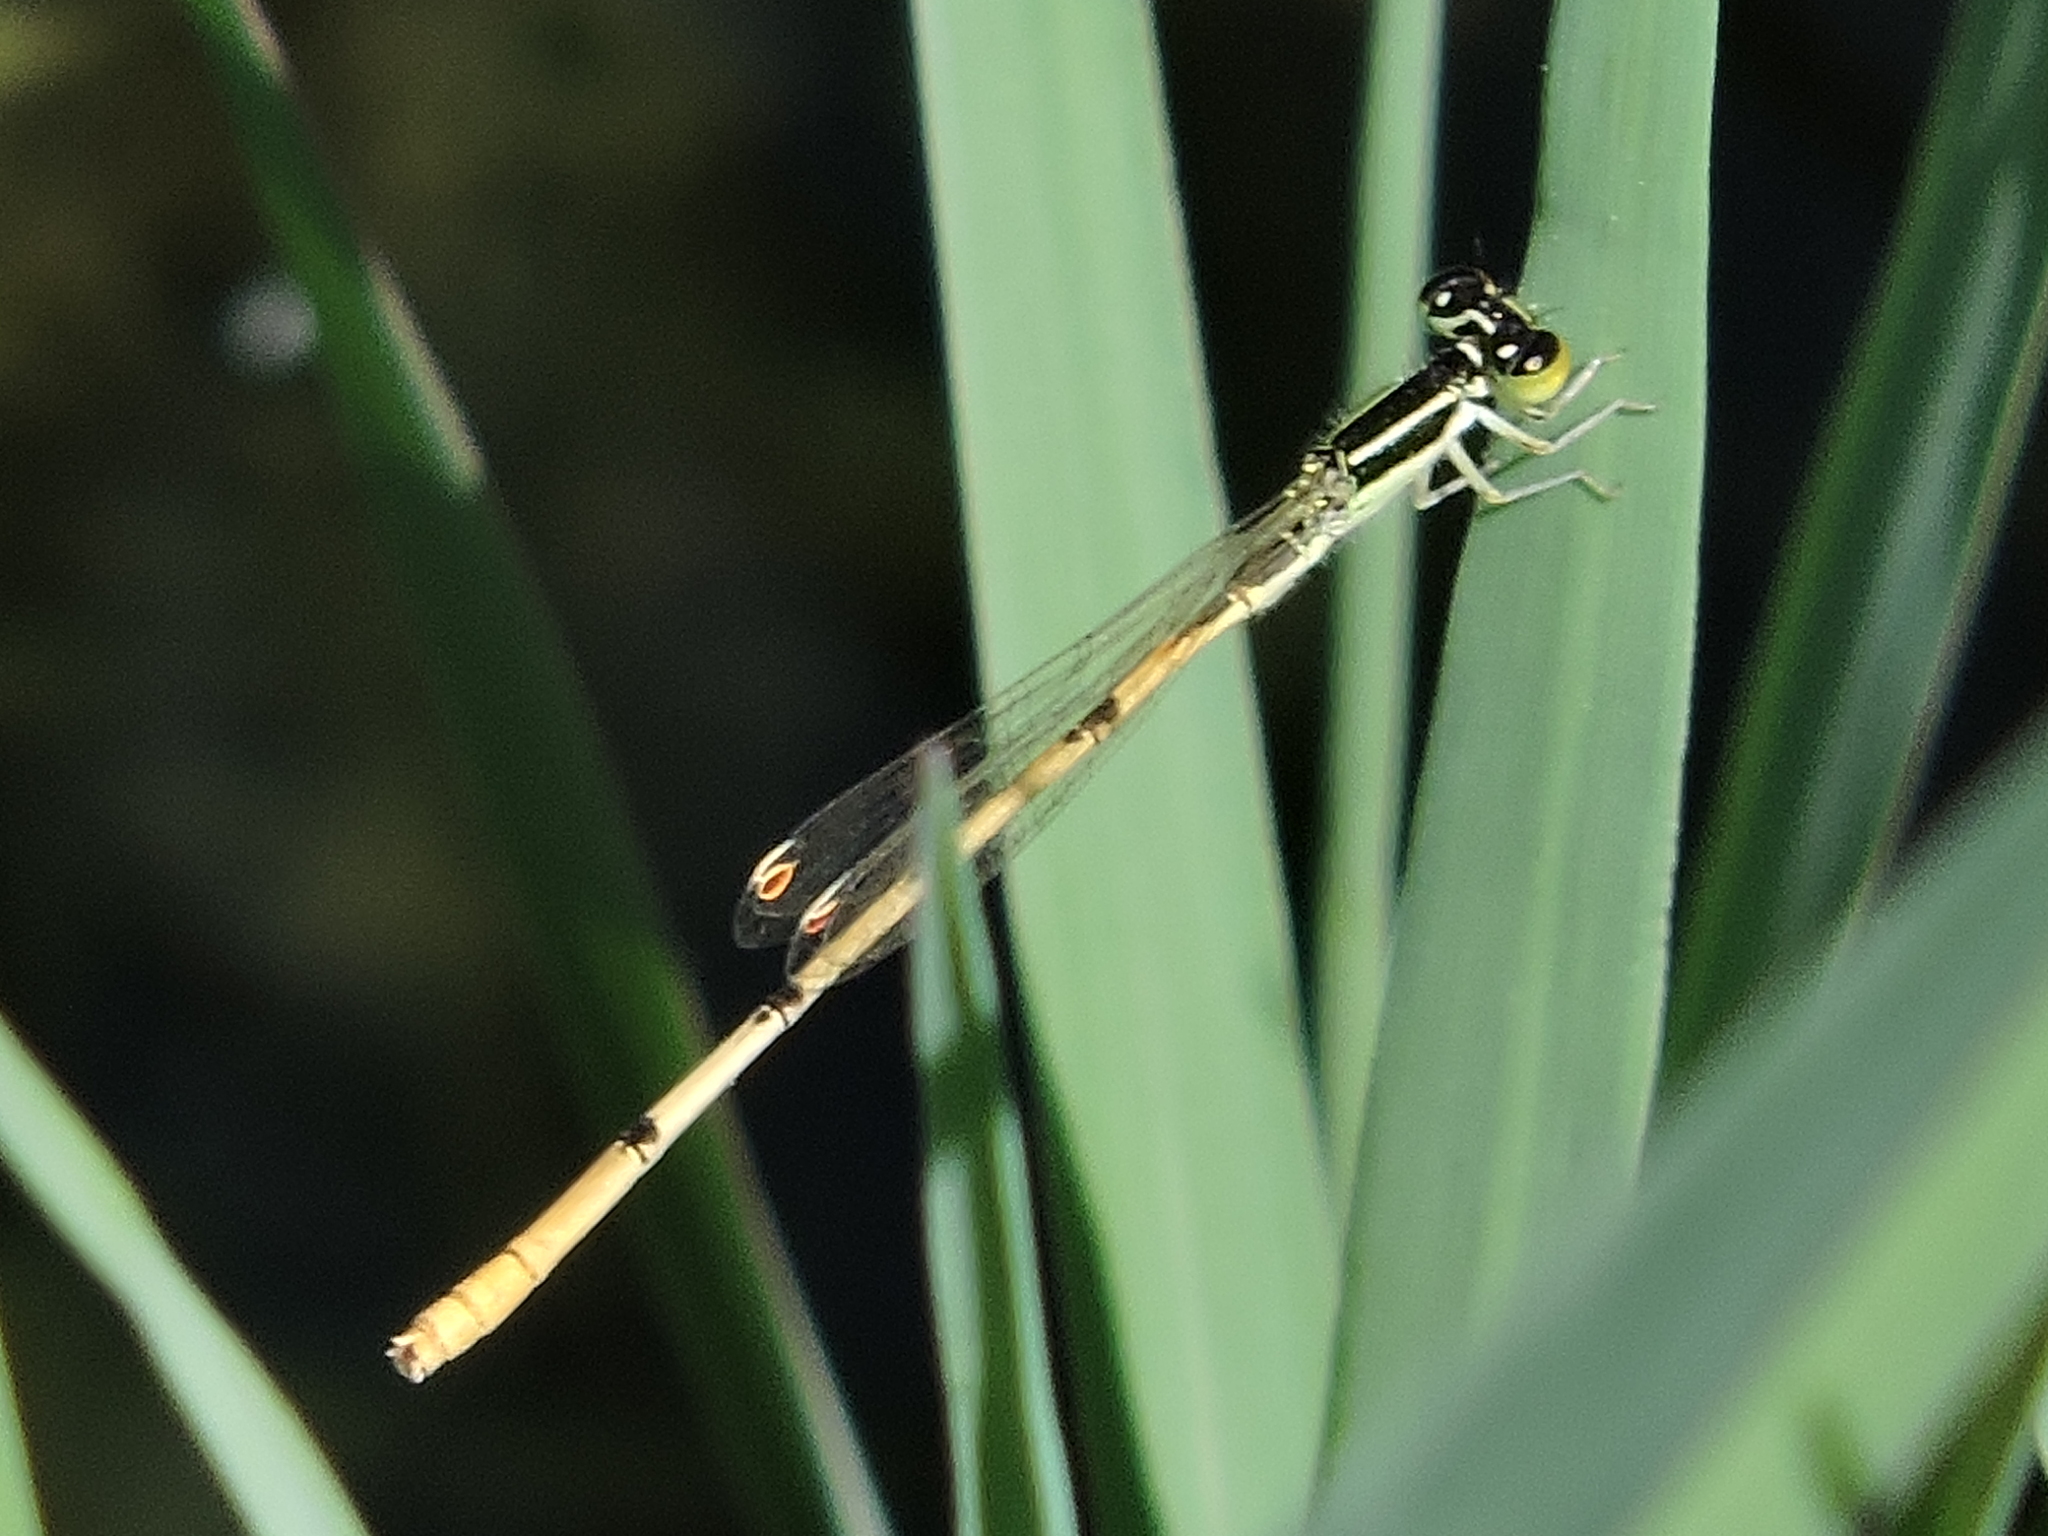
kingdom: Animalia
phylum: Arthropoda
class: Insecta
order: Odonata
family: Coenagrionidae
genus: Ischnura
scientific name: Ischnura hastata
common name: Citrine forktail
